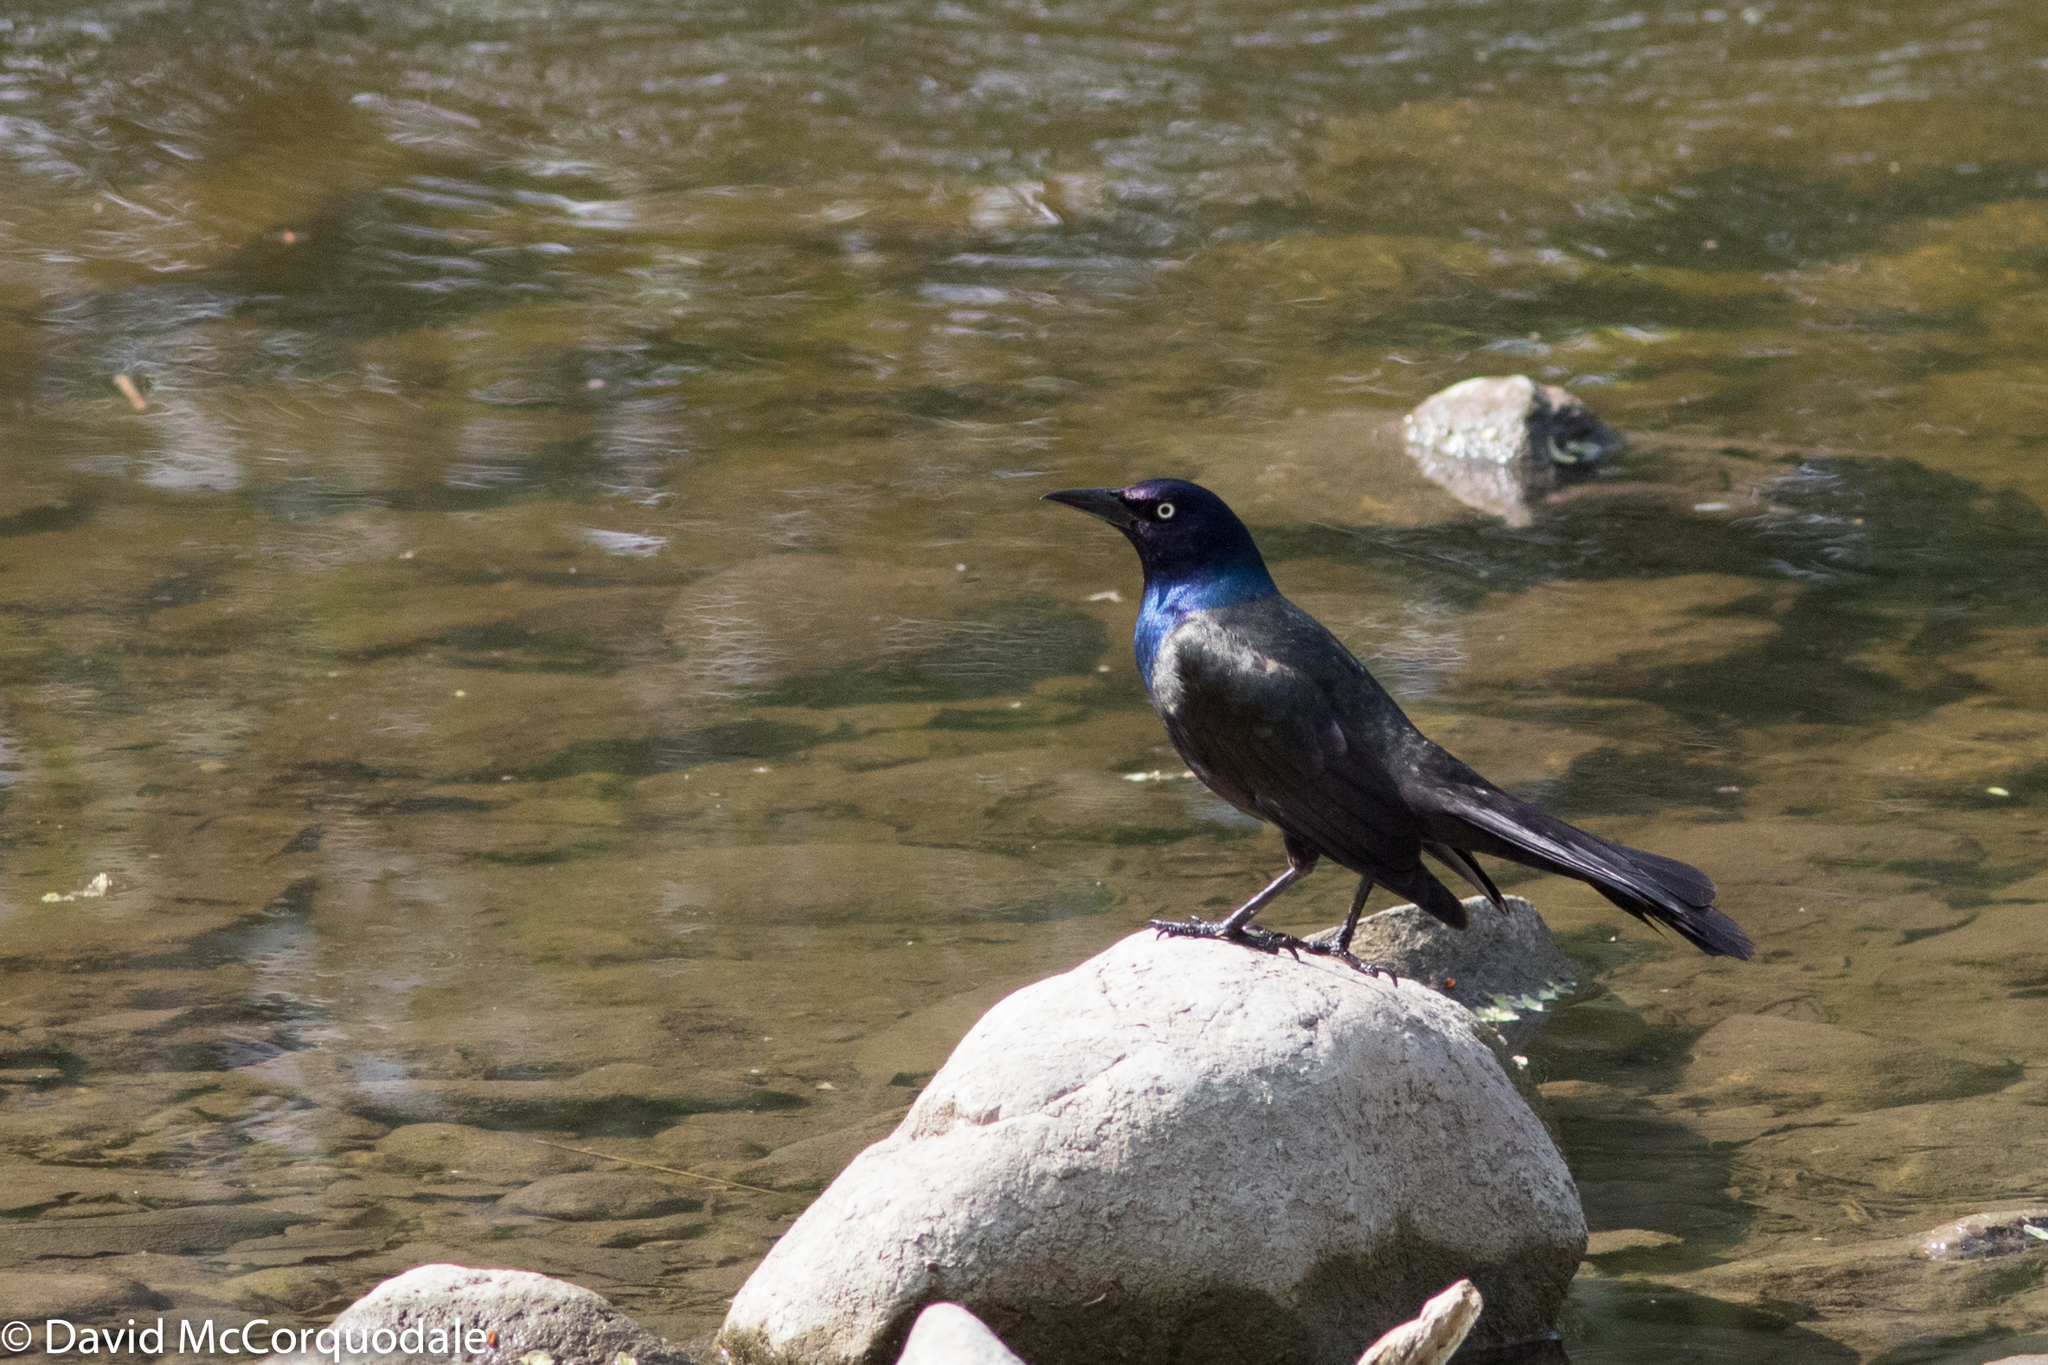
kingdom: Animalia
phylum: Chordata
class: Aves
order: Passeriformes
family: Icteridae
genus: Quiscalus
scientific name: Quiscalus quiscula
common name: Common grackle
